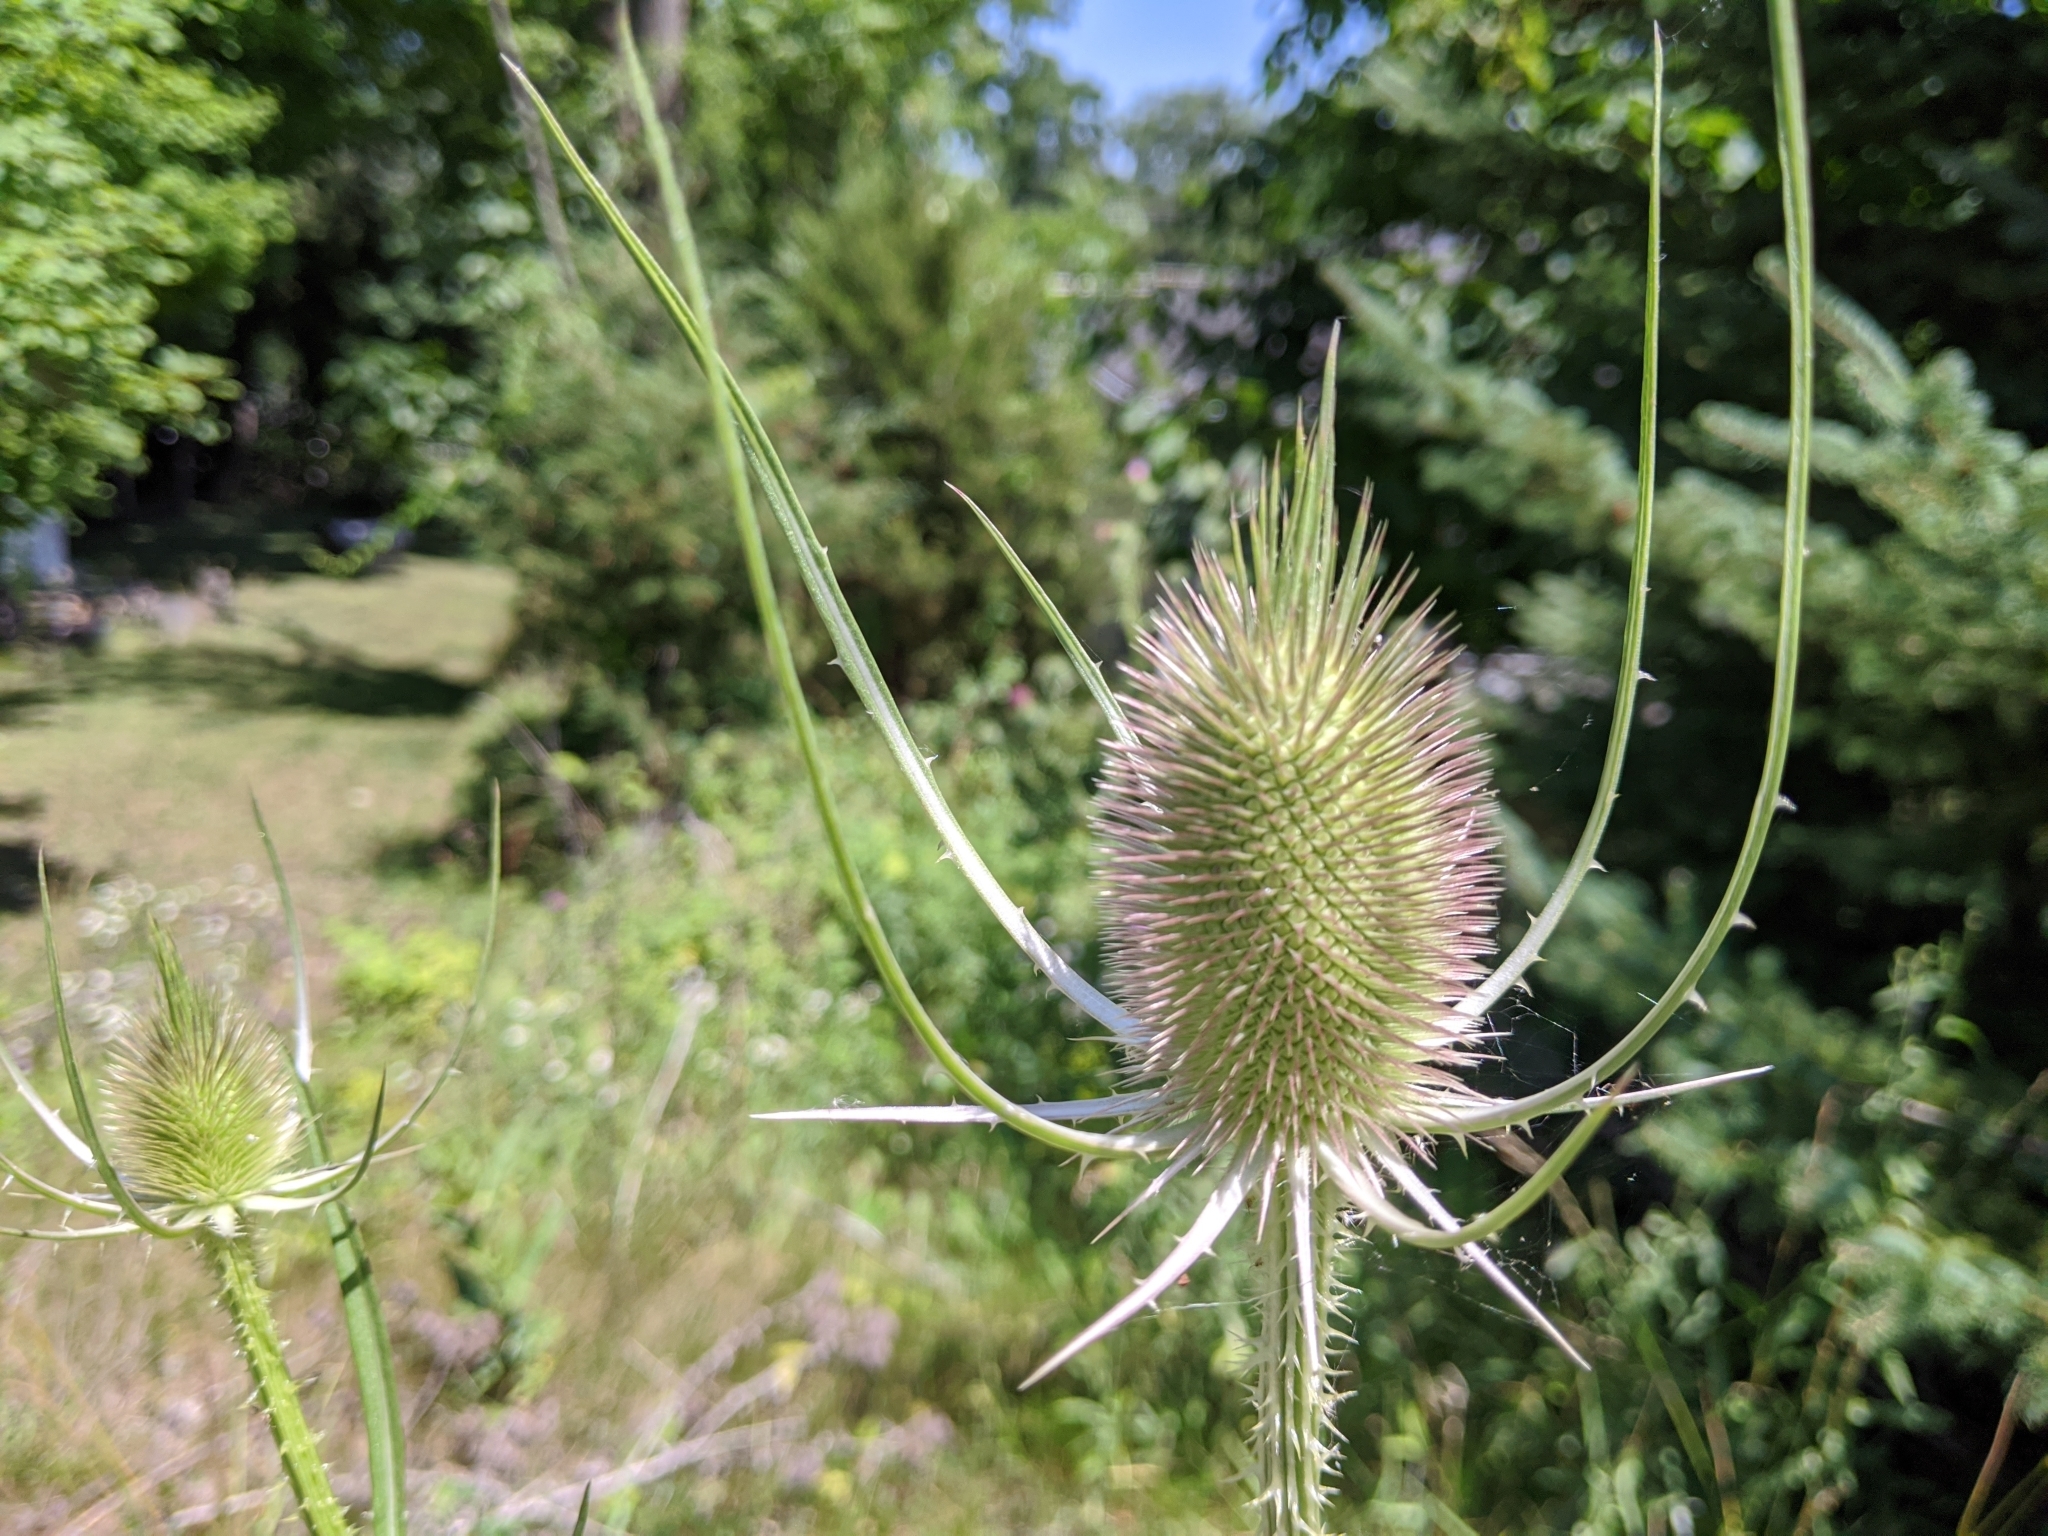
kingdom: Plantae
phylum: Tracheophyta
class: Magnoliopsida
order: Dipsacales
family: Caprifoliaceae
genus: Dipsacus
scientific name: Dipsacus fullonum
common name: Teasel
